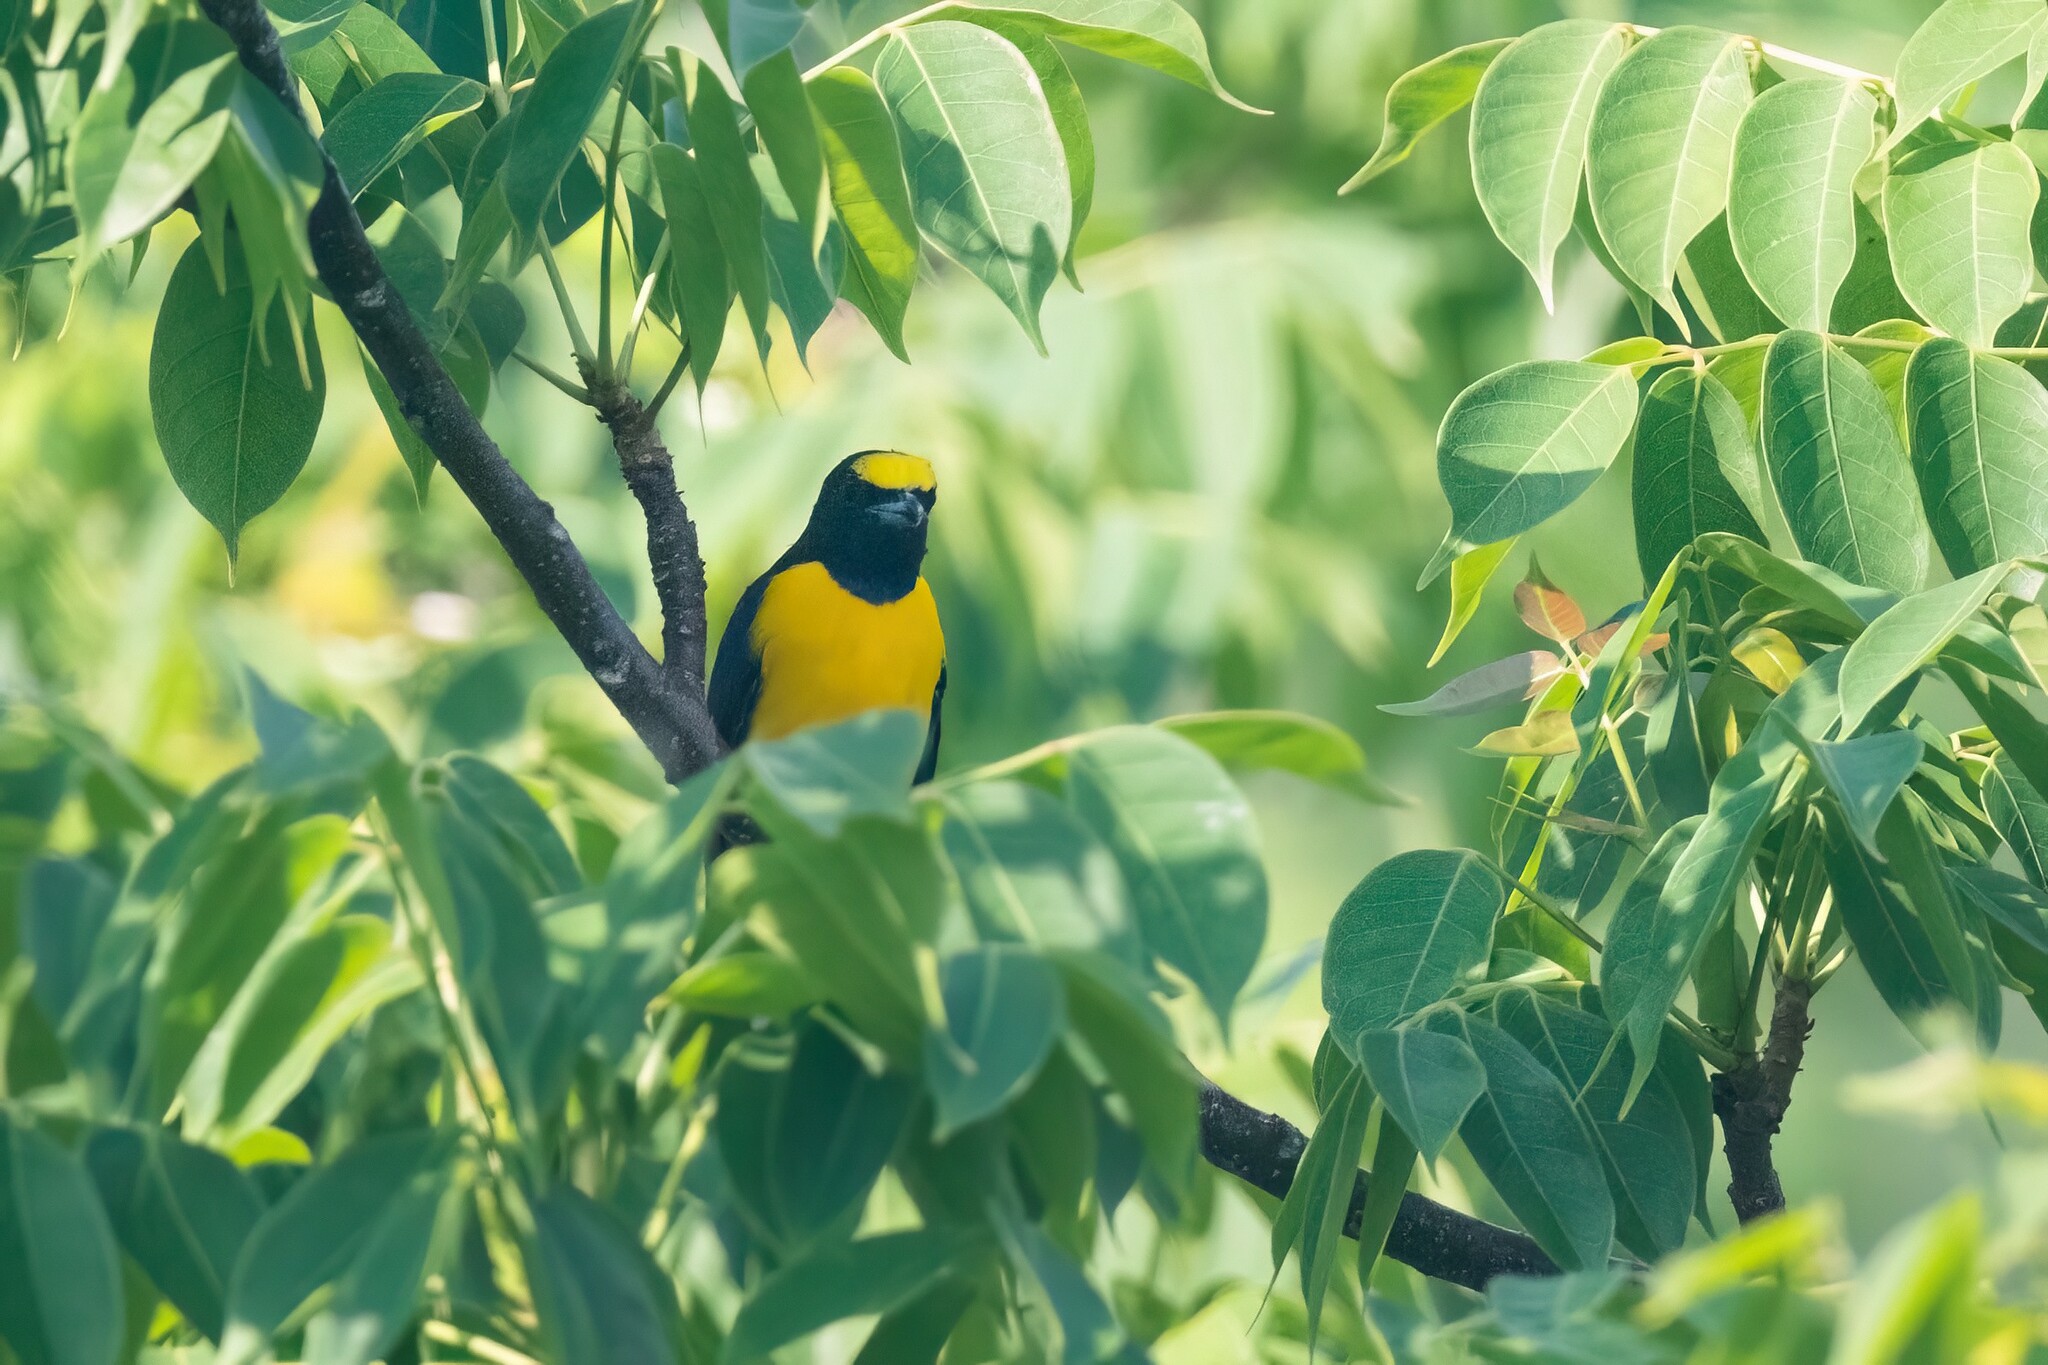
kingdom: Animalia
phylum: Chordata
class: Aves
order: Passeriformes
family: Fringillidae
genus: Euphonia
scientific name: Euphonia godmani
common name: West mexican euphonia
